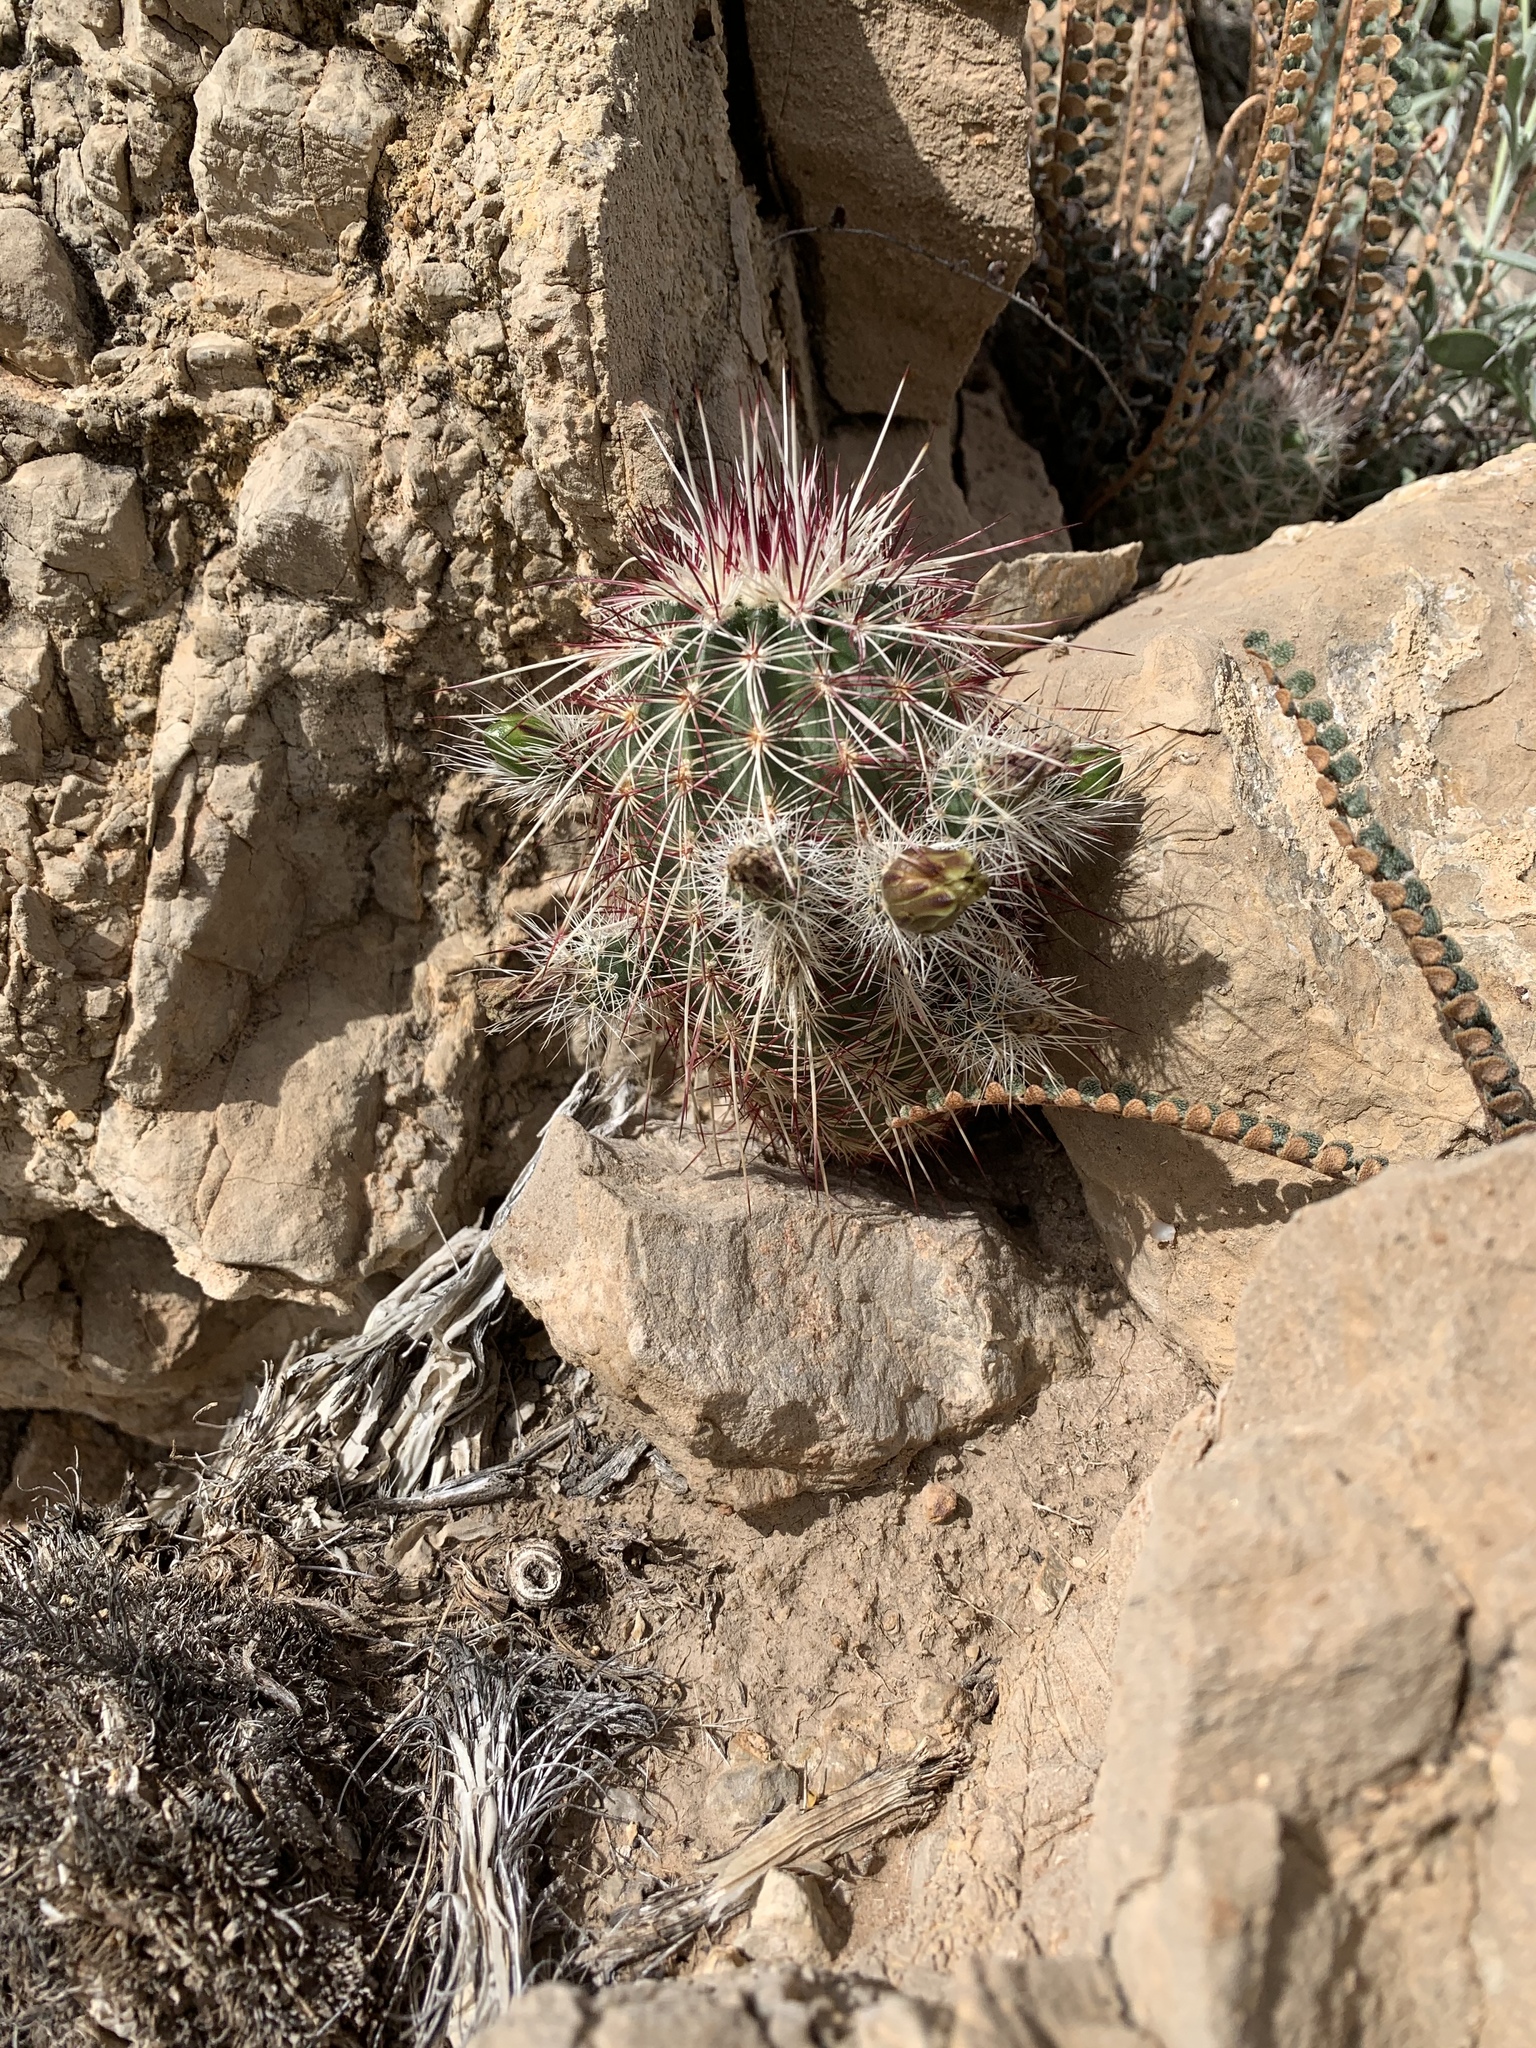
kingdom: Plantae
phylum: Tracheophyta
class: Magnoliopsida
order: Caryophyllales
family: Cactaceae
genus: Echinocereus
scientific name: Echinocereus viridiflorus
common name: Nylon hedgehog cactus
